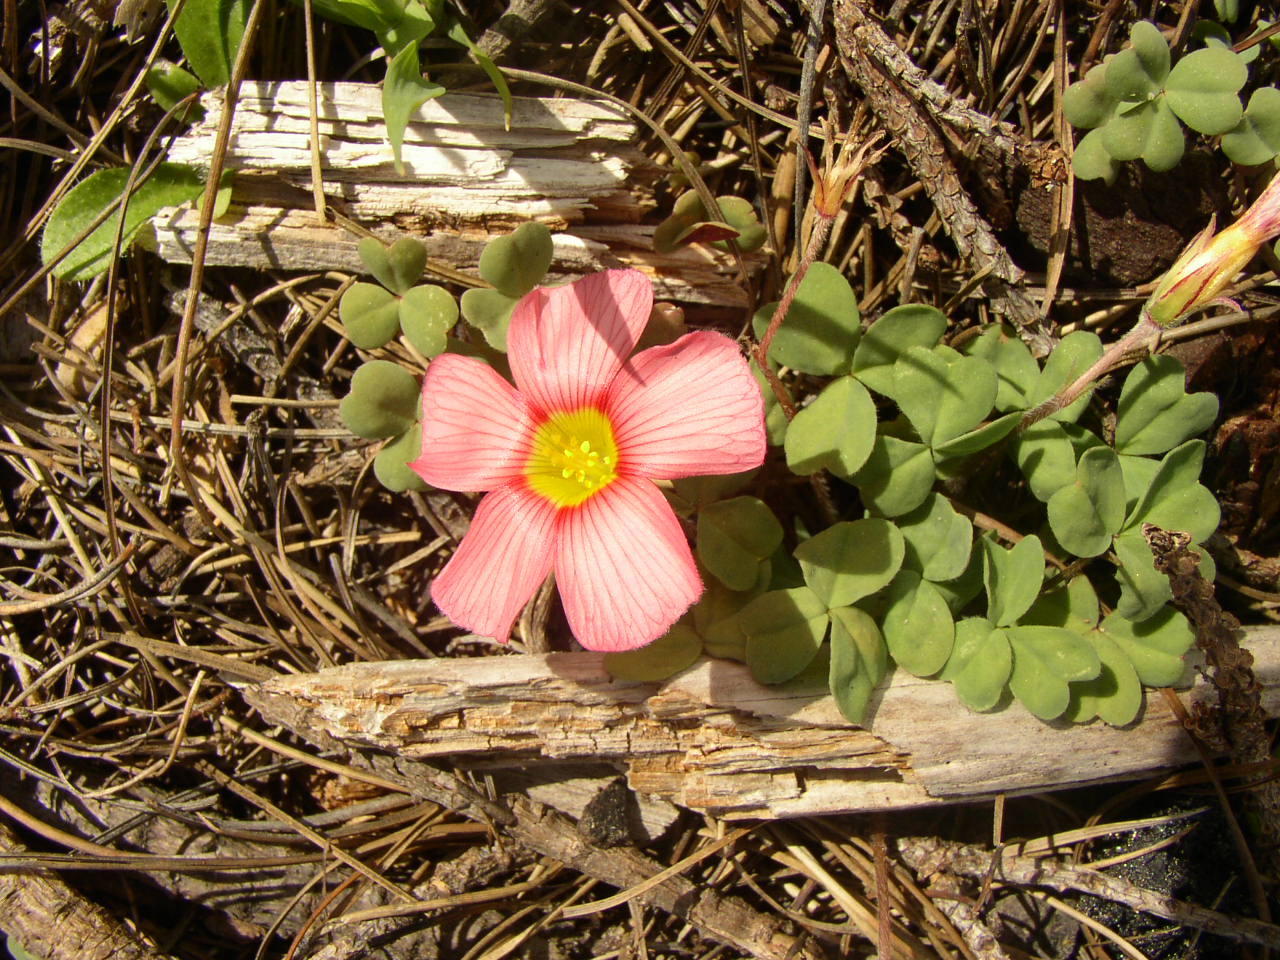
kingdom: Plantae
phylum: Tracheophyta
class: Magnoliopsida
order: Oxalidales
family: Oxalidaceae
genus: Oxalis
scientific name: Oxalis obtusa
